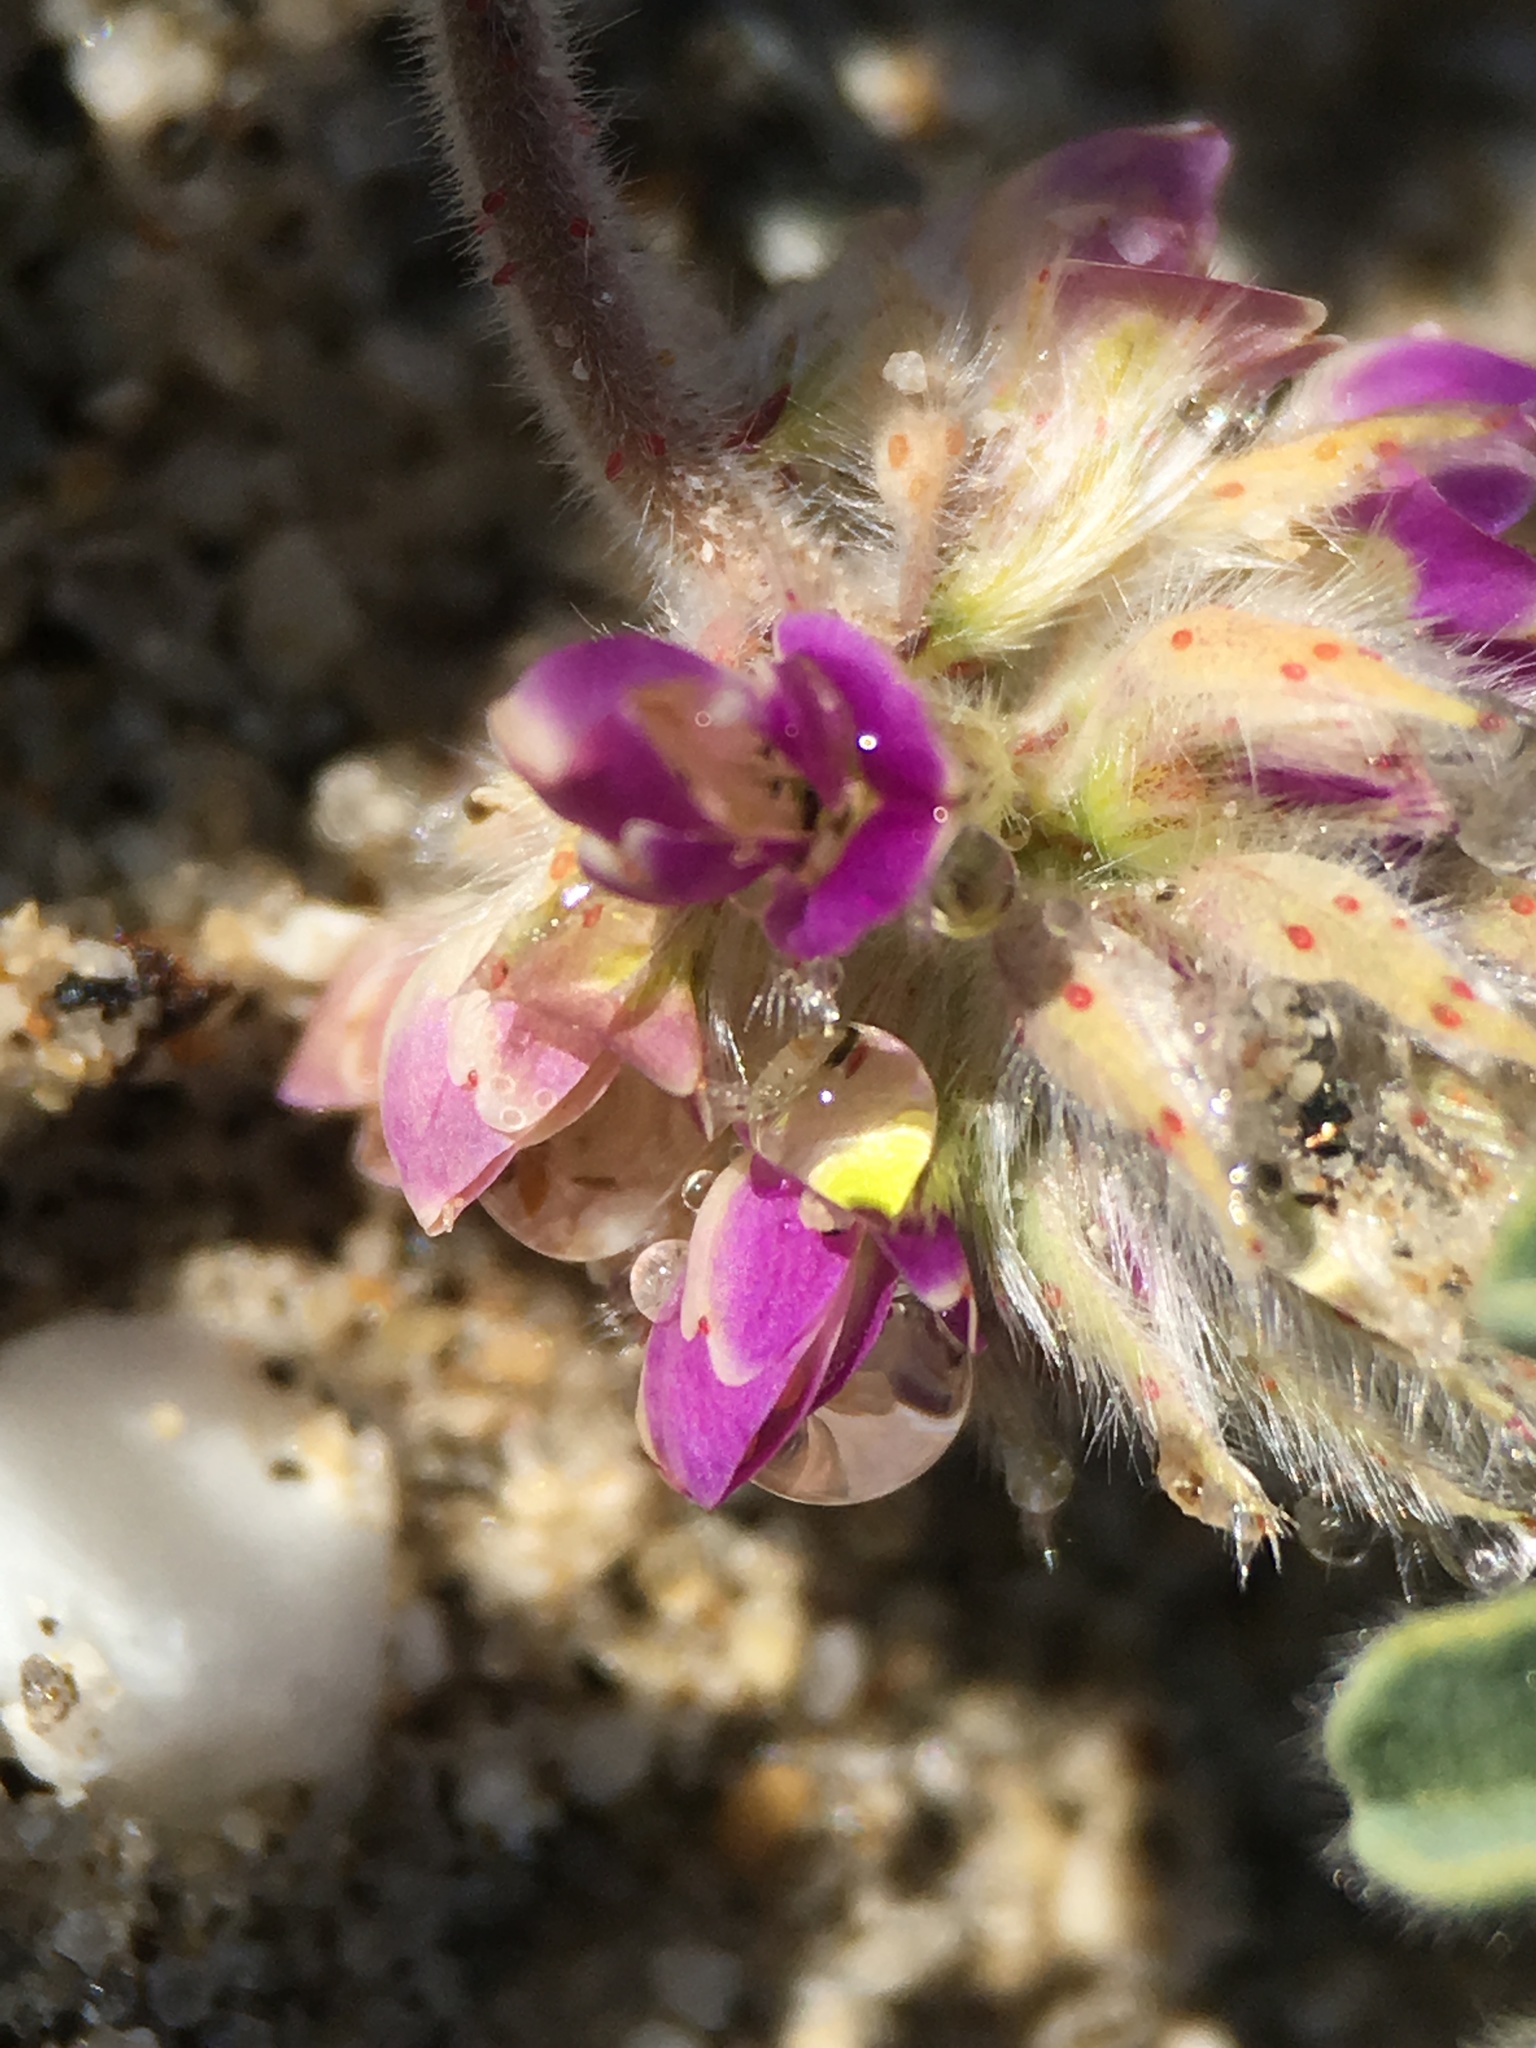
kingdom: Plantae
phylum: Tracheophyta
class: Magnoliopsida
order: Fabales
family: Fabaceae
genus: Dalea
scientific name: Dalea mollis
